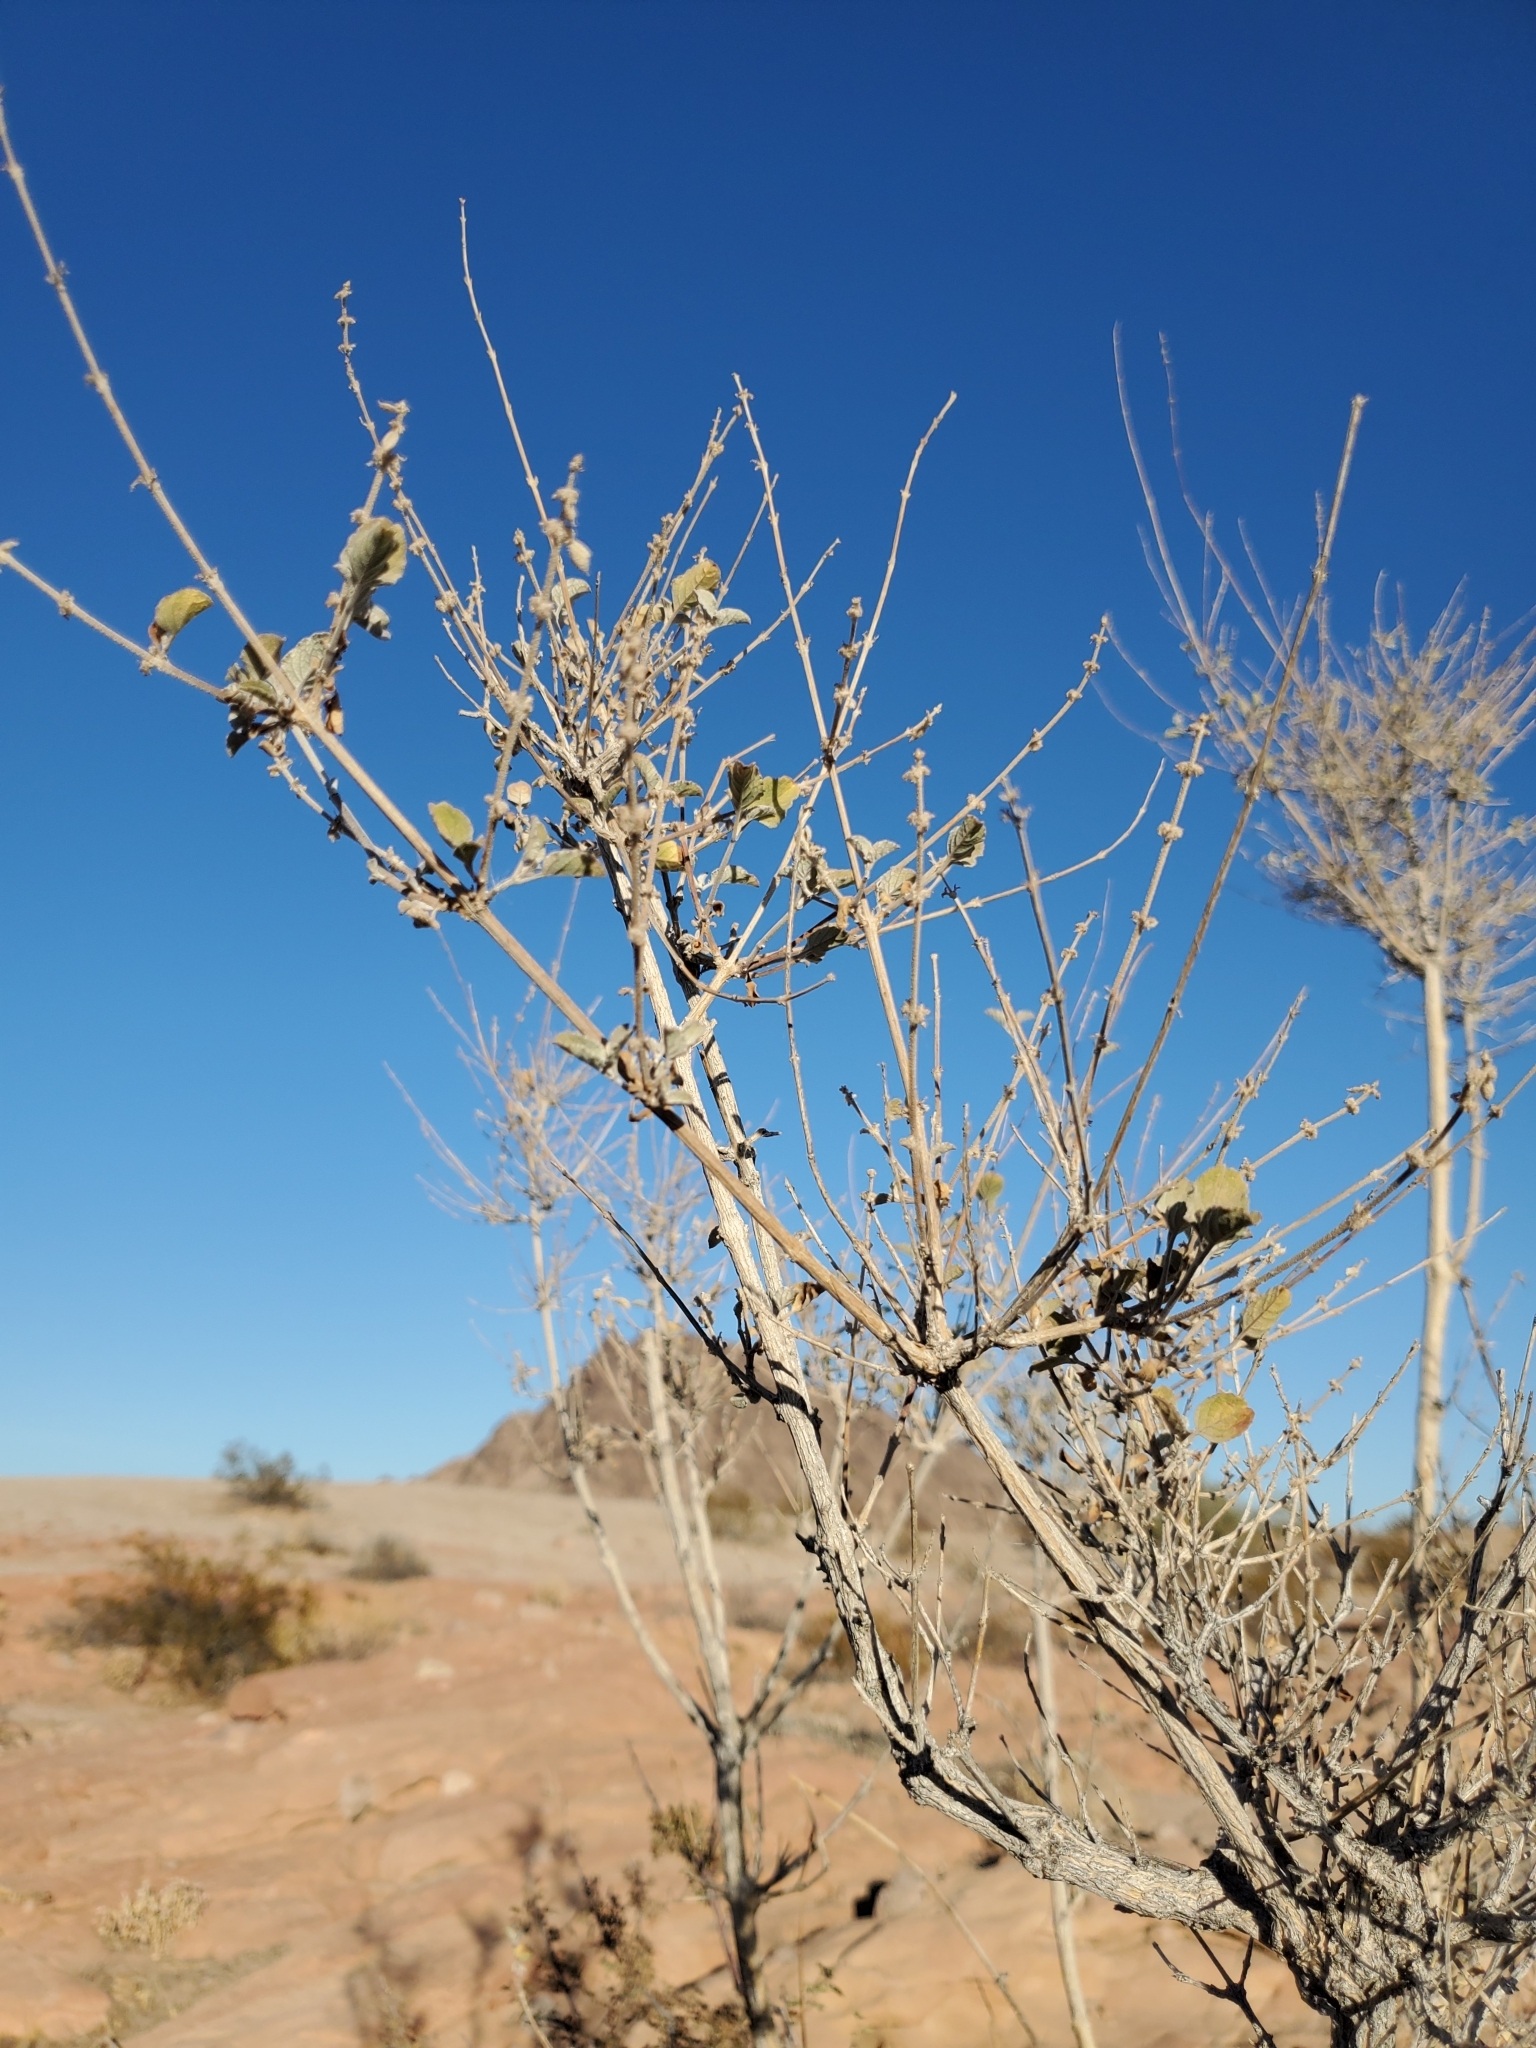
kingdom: Plantae
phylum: Tracheophyta
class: Magnoliopsida
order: Lamiales
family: Lamiaceae
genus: Condea
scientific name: Condea emoryi
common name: Chia
